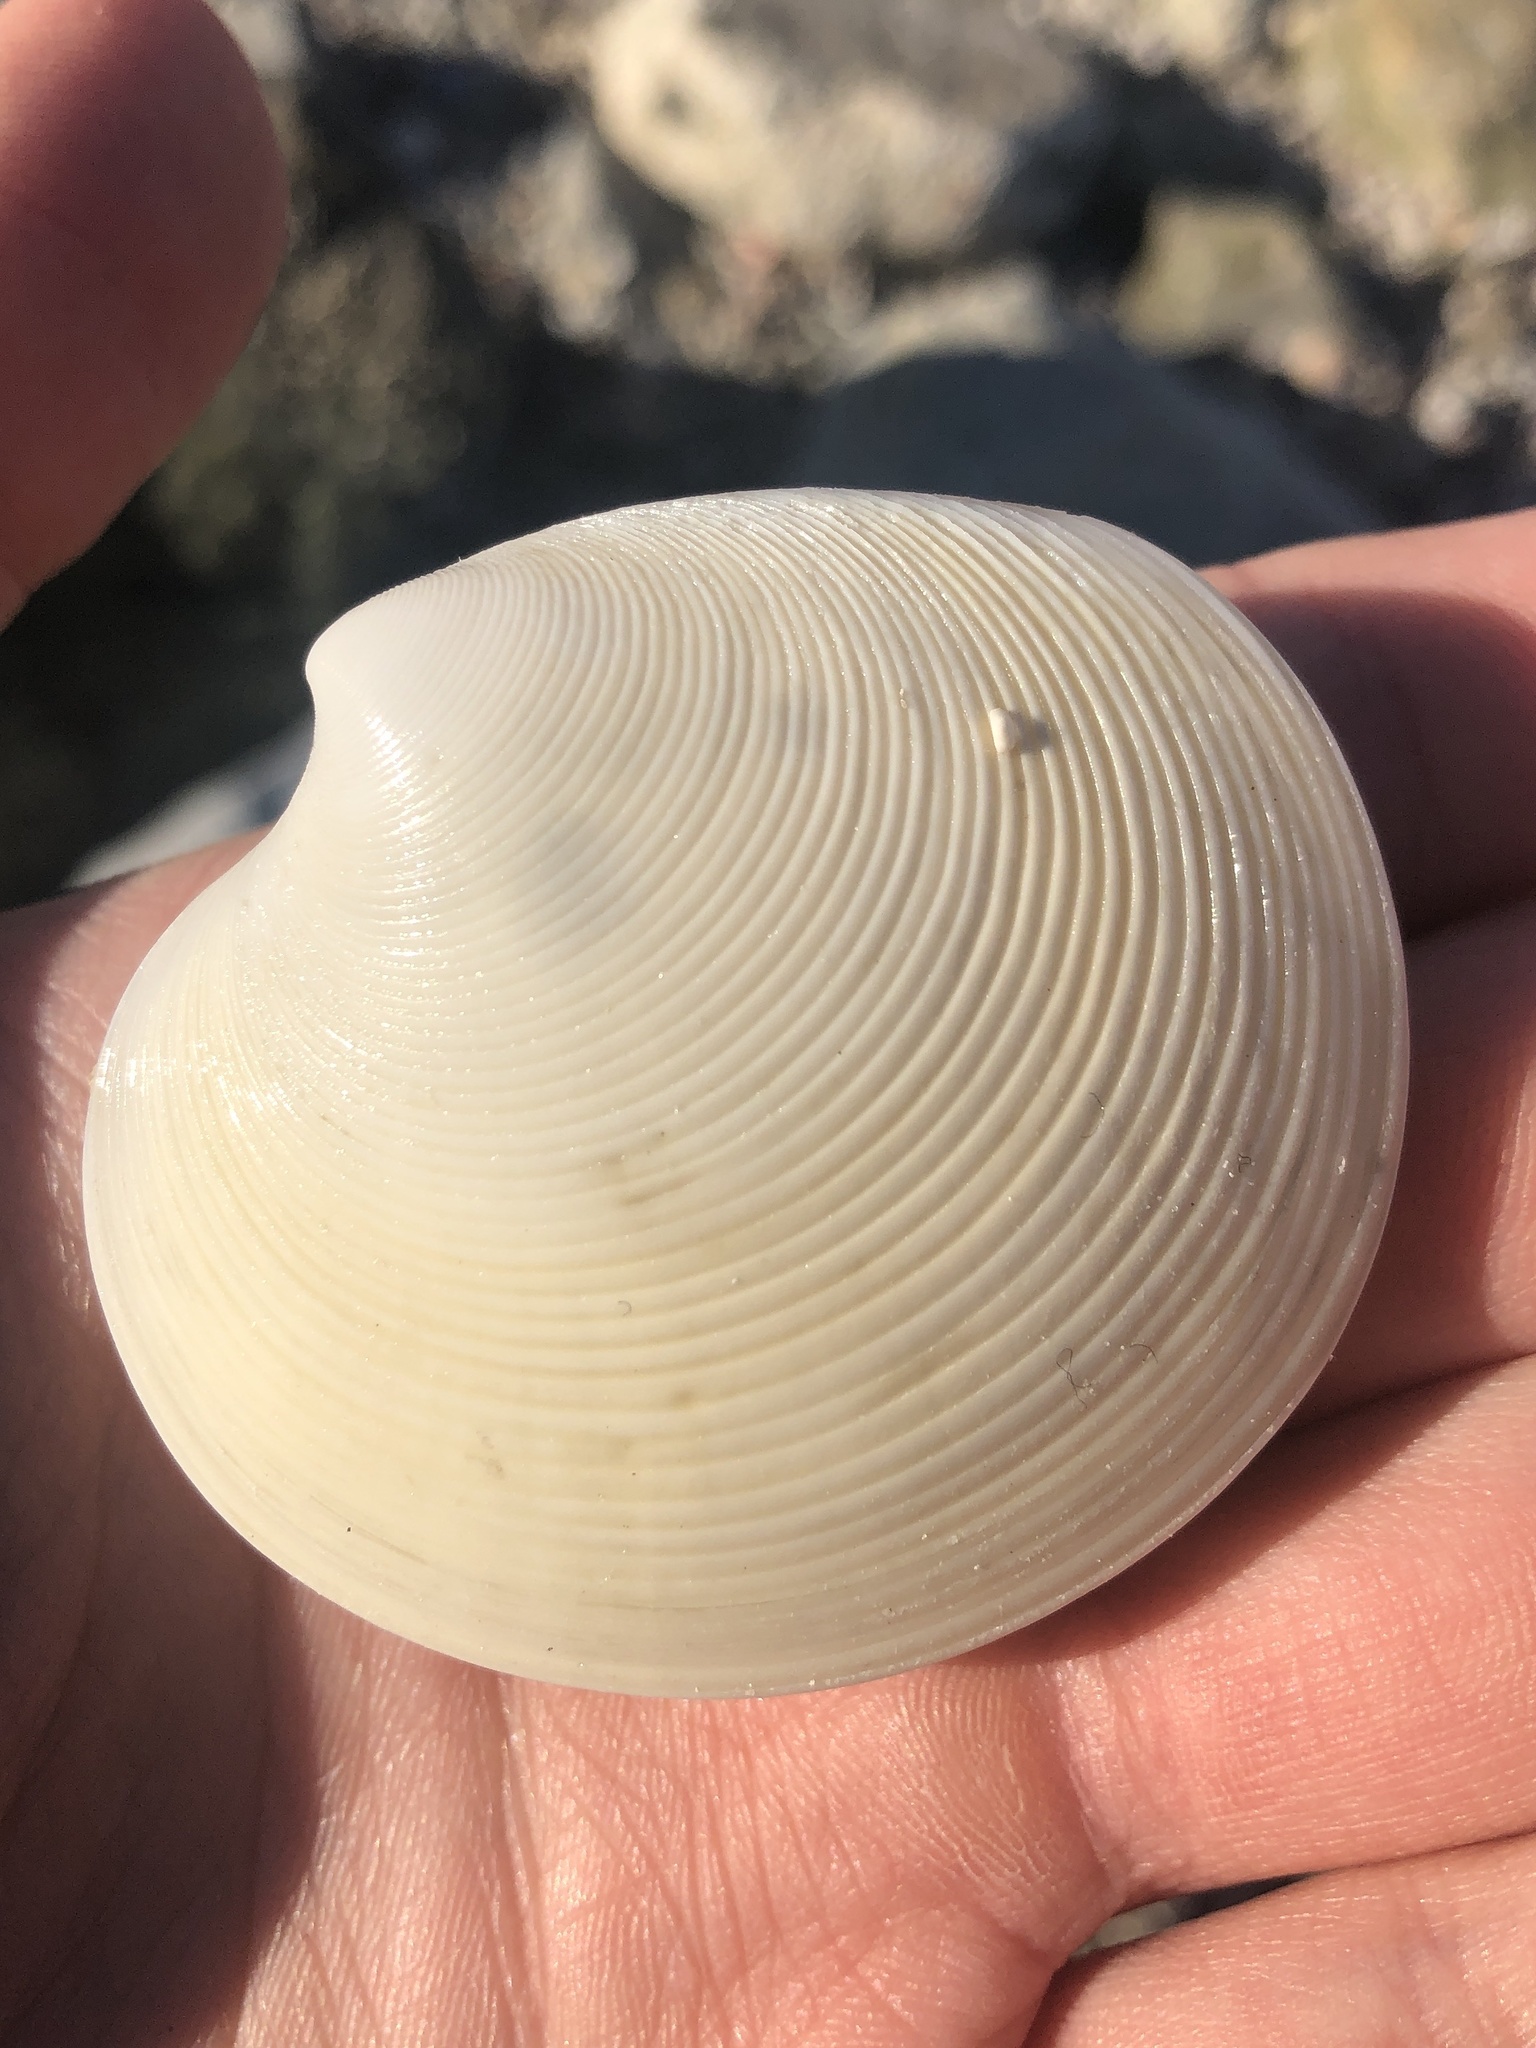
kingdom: Animalia
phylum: Mollusca
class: Bivalvia
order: Venerida
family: Veneridae
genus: Dosinia
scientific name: Dosinia concentrica
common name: Elegant dosinia
